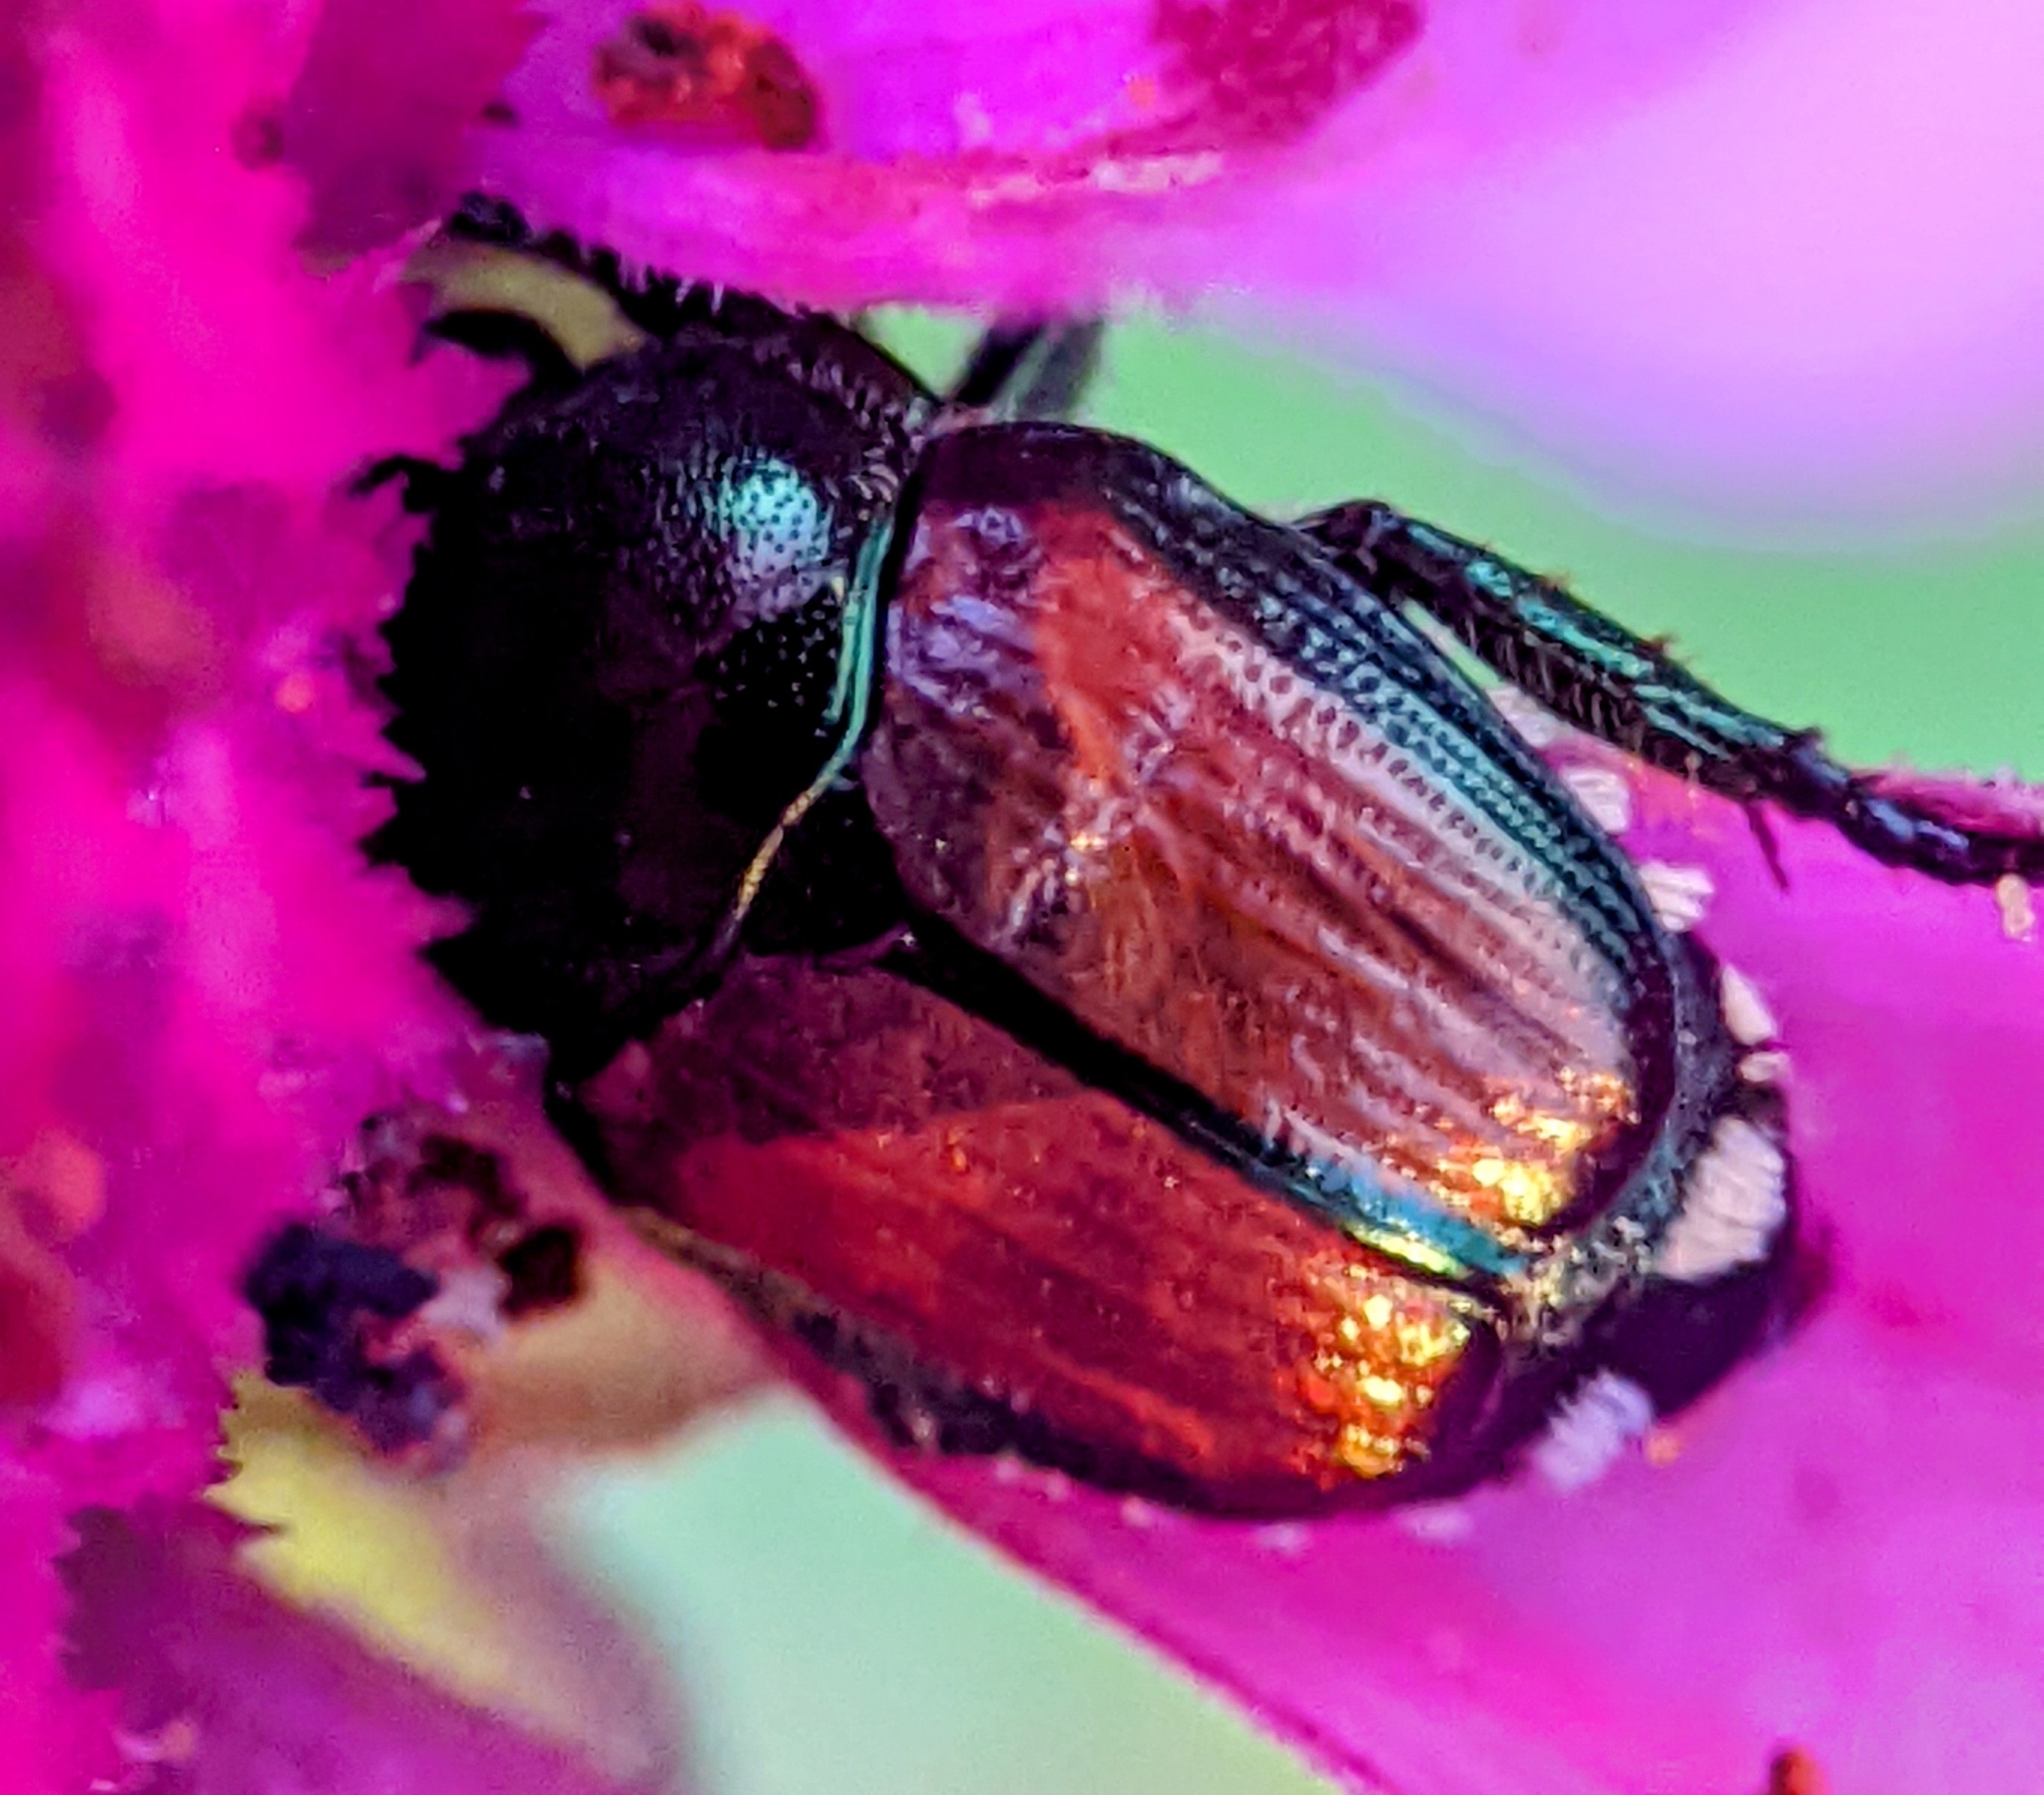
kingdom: Animalia
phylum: Arthropoda
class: Insecta
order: Coleoptera
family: Scarabaeidae
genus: Popillia
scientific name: Popillia japonica
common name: Japanese beetle
